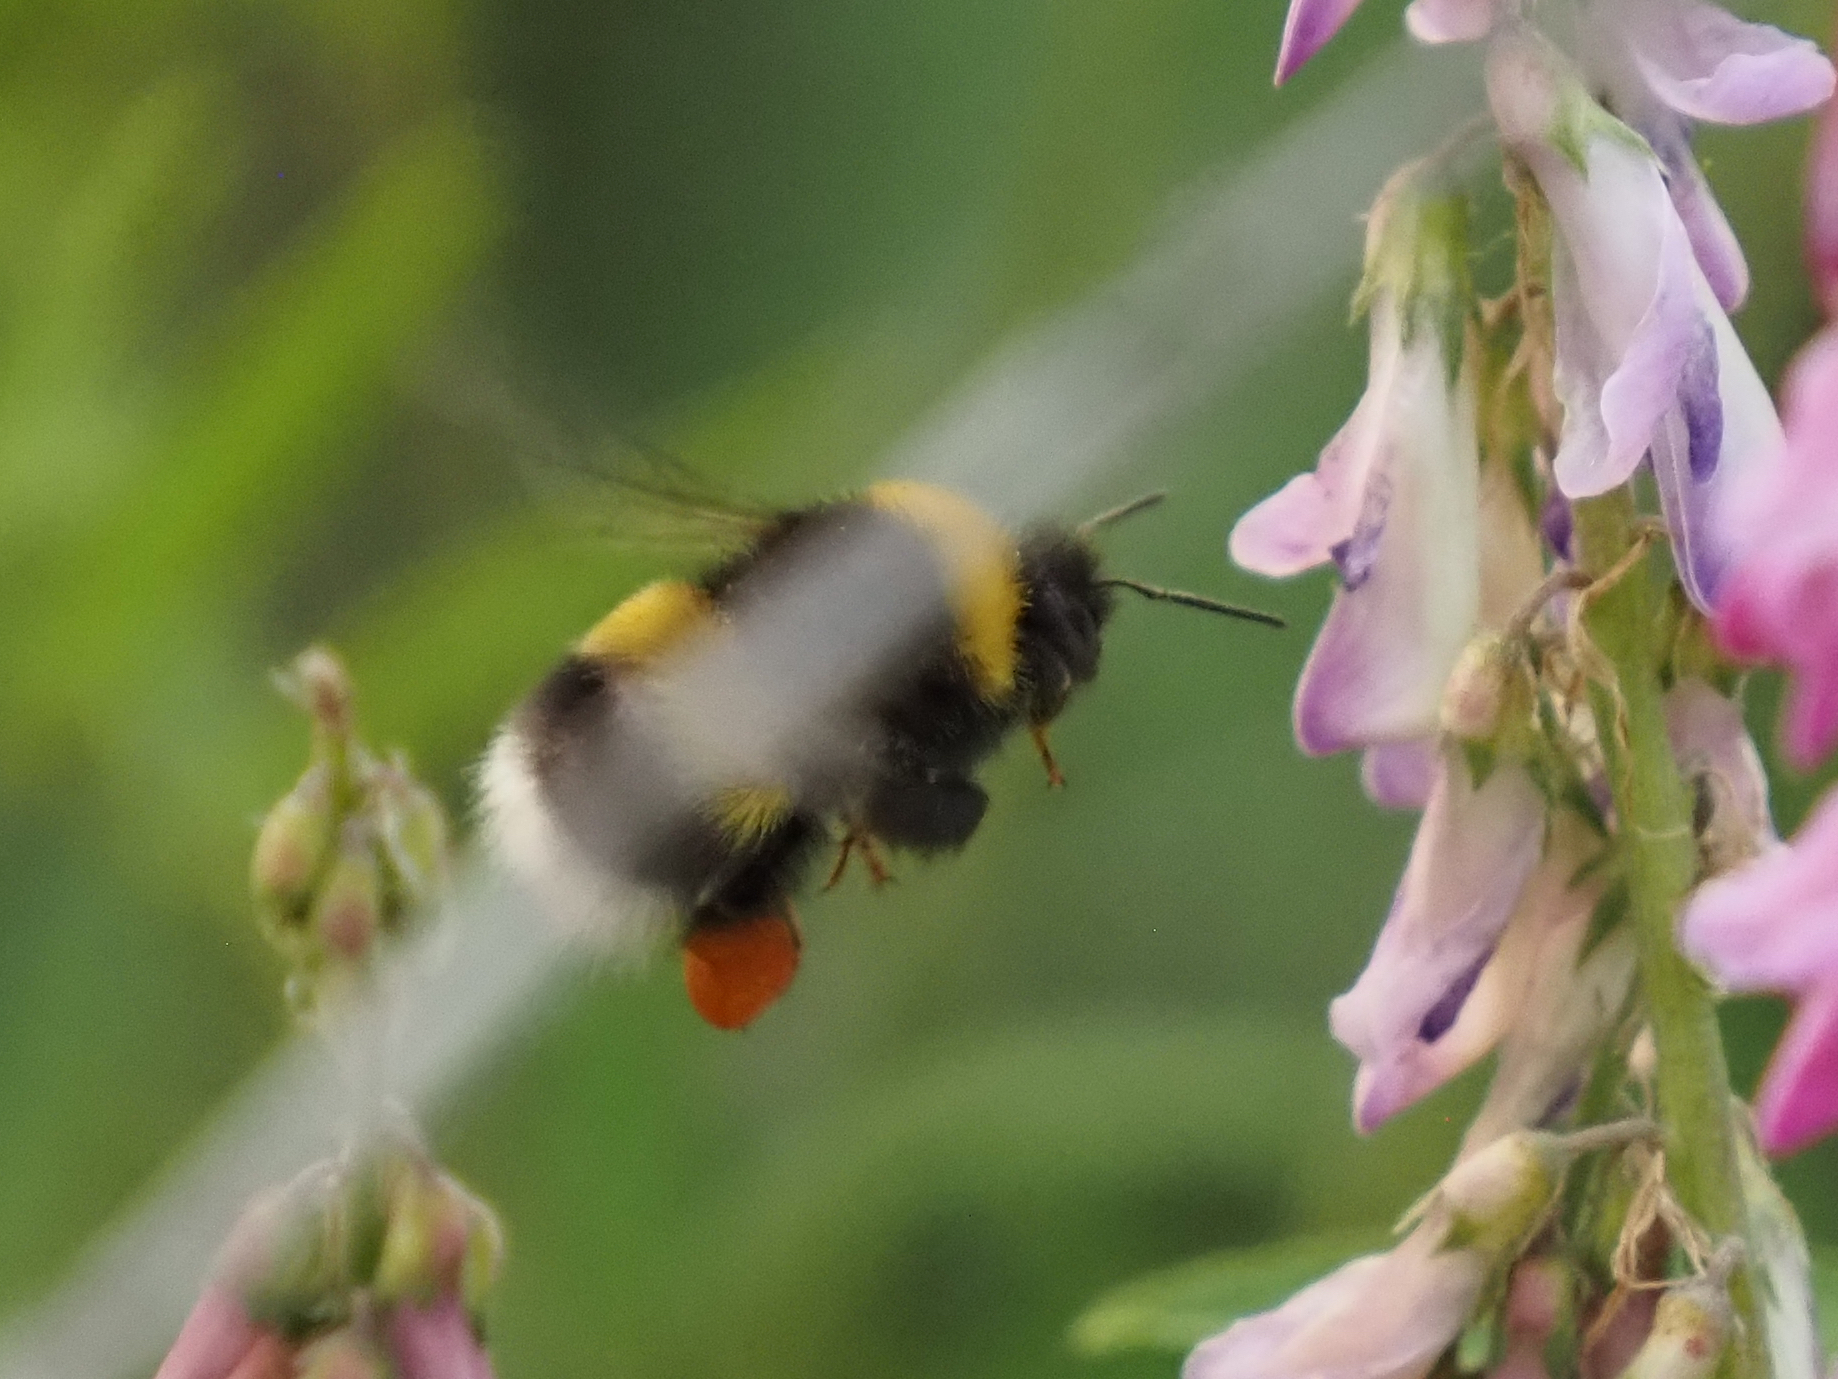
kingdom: Animalia
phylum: Arthropoda
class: Insecta
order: Hymenoptera
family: Apidae
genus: Bombus
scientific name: Bombus cryptarum
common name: Cryptic bumblebee
